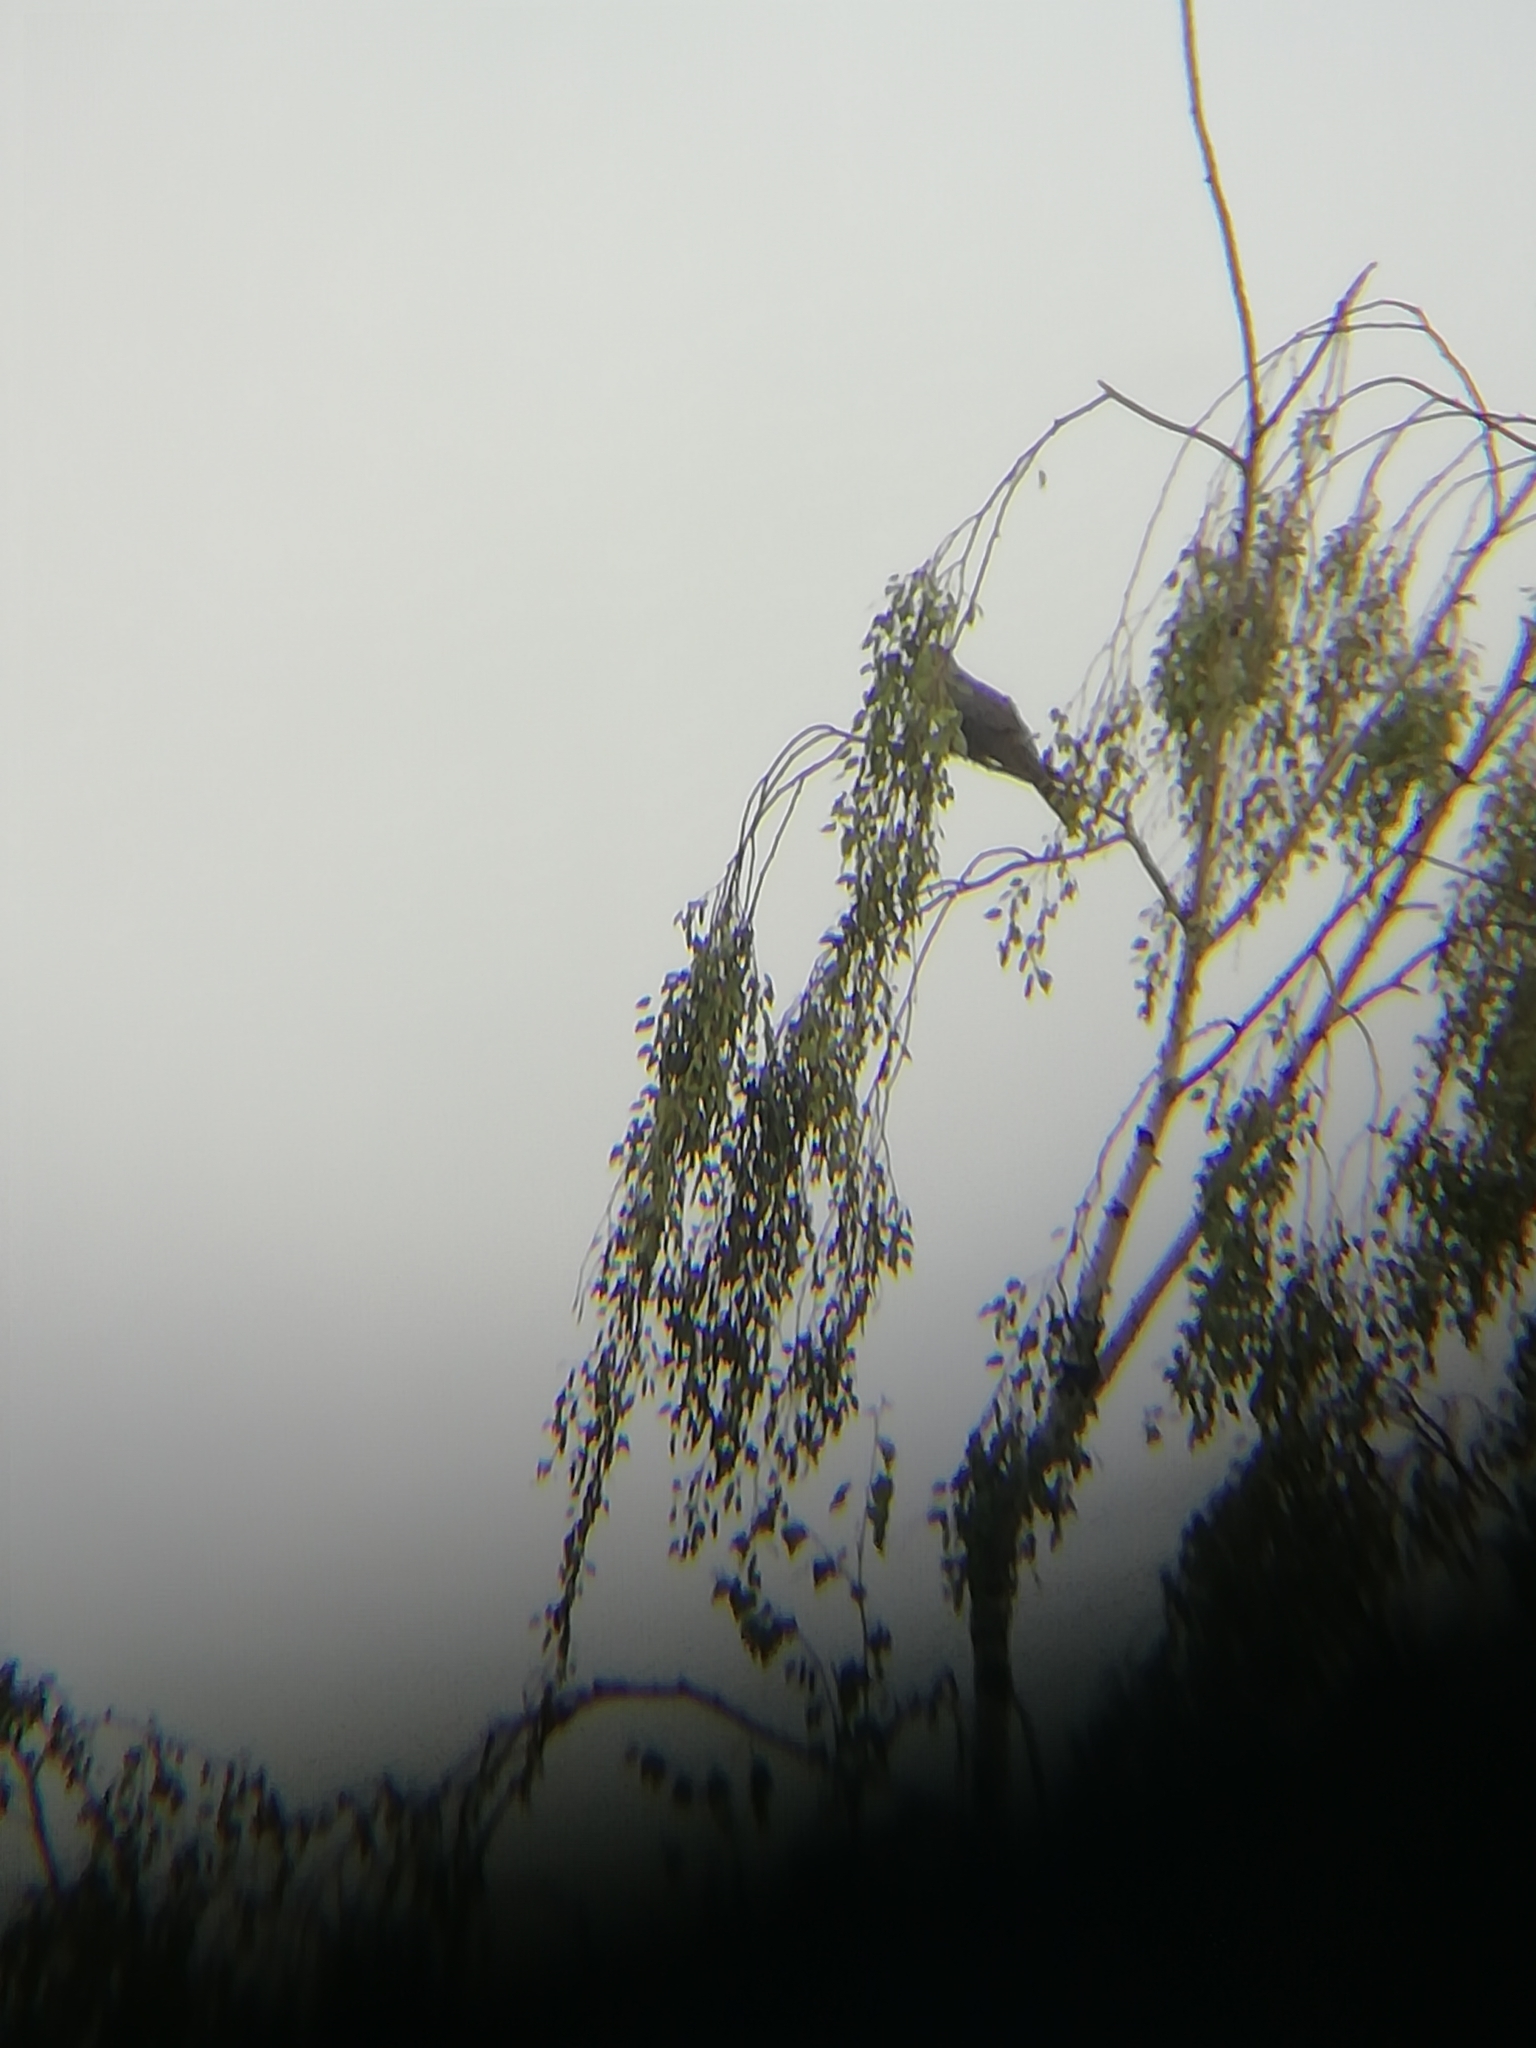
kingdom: Animalia
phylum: Chordata
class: Aves
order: Cuculiformes
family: Cuculidae
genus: Cuculus
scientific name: Cuculus canorus
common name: Common cuckoo
